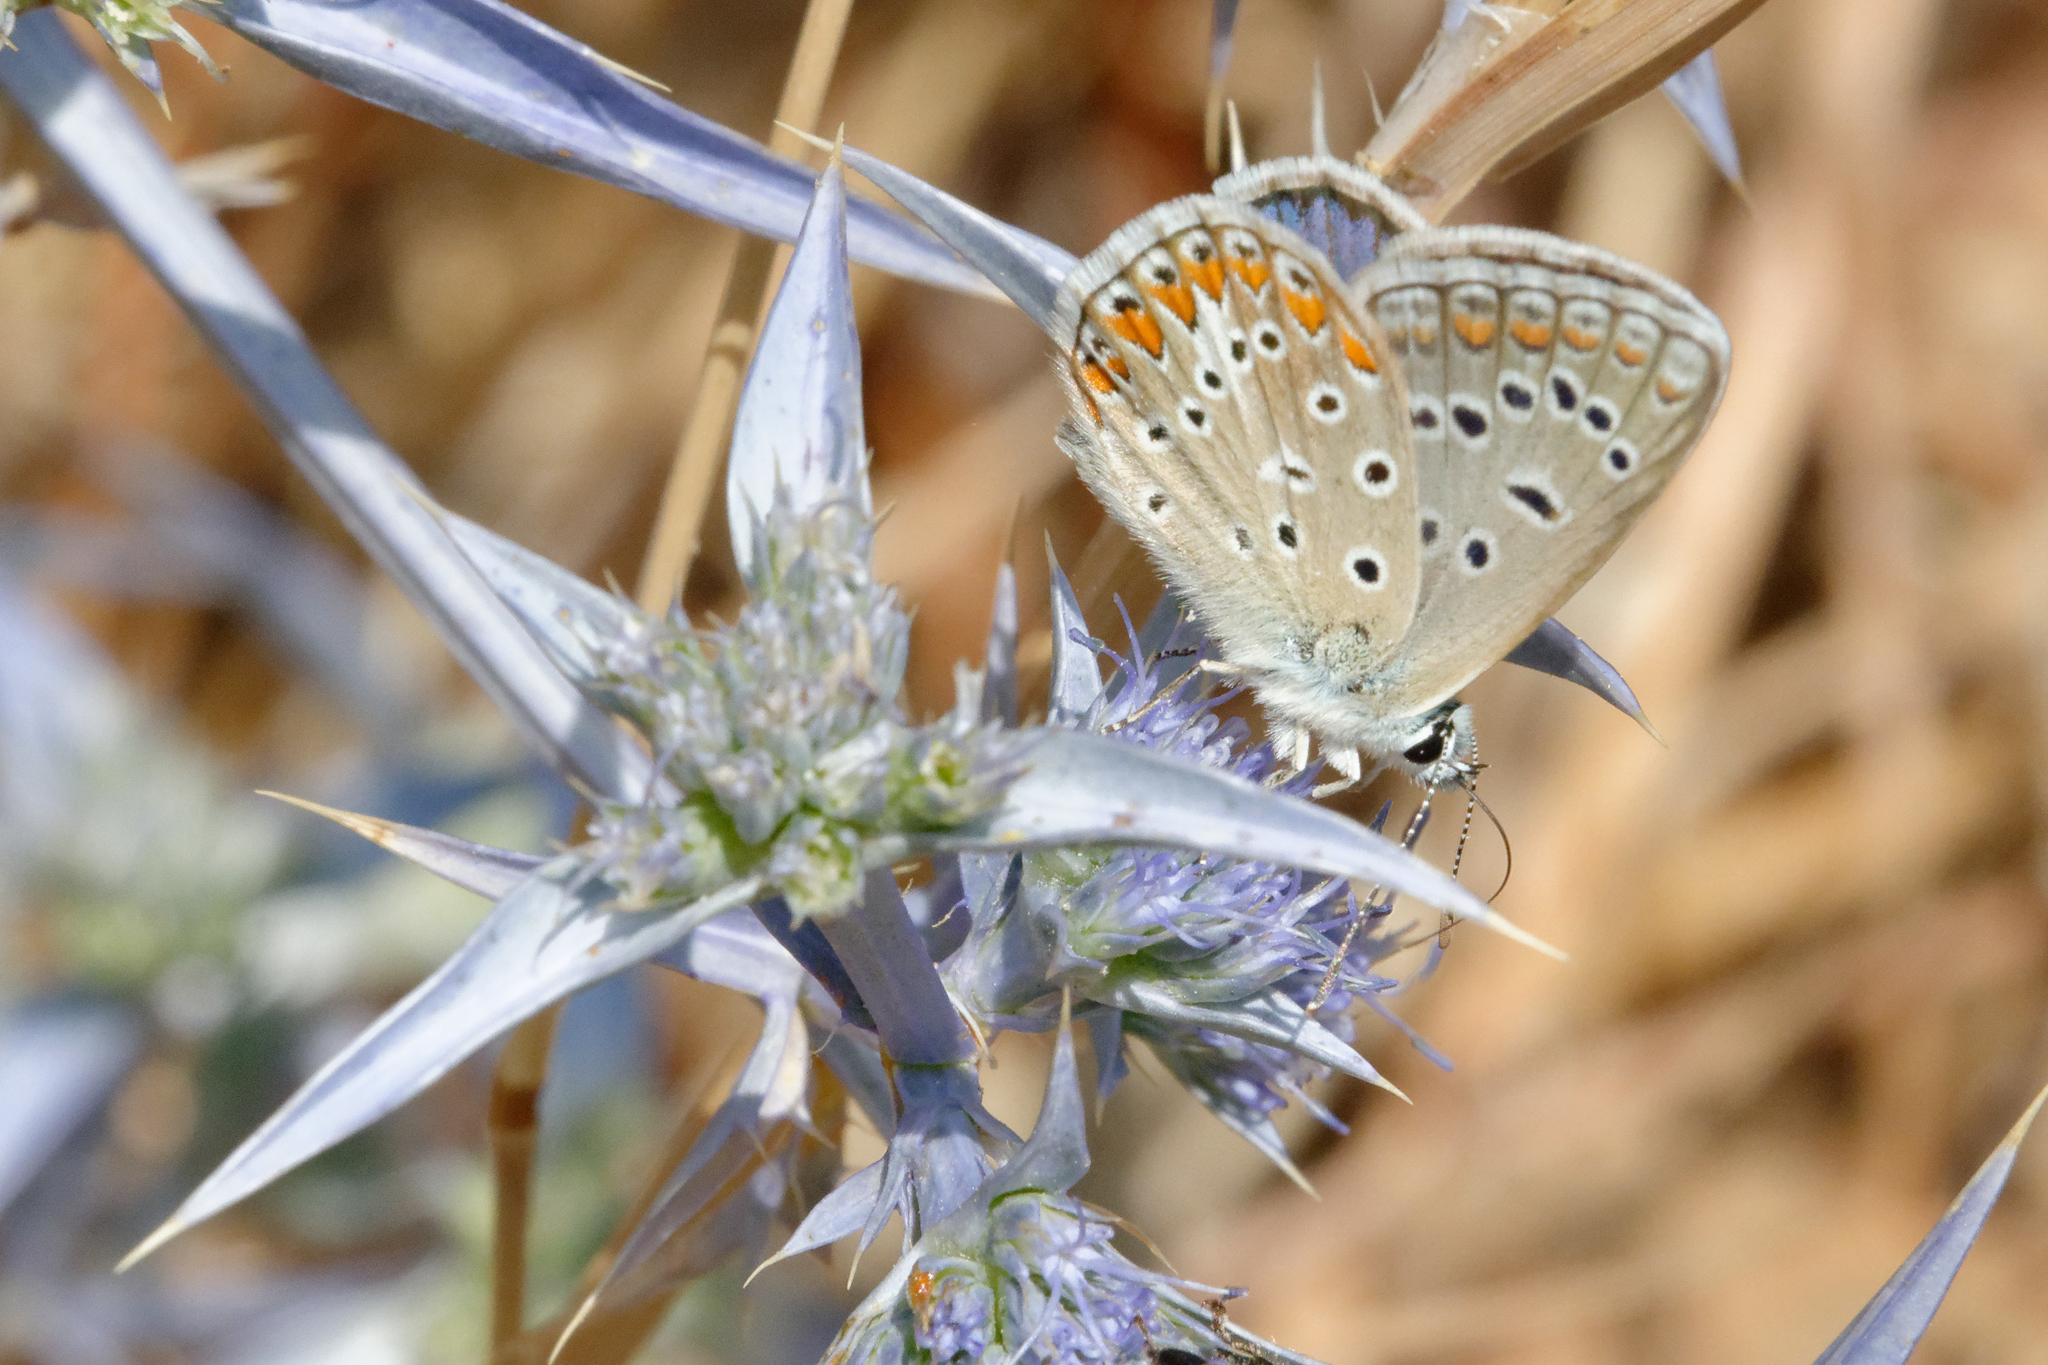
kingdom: Animalia
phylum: Arthropoda
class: Insecta
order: Lepidoptera
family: Lycaenidae
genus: Polyommatus
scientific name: Polyommatus celina
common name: Austaut's blue
